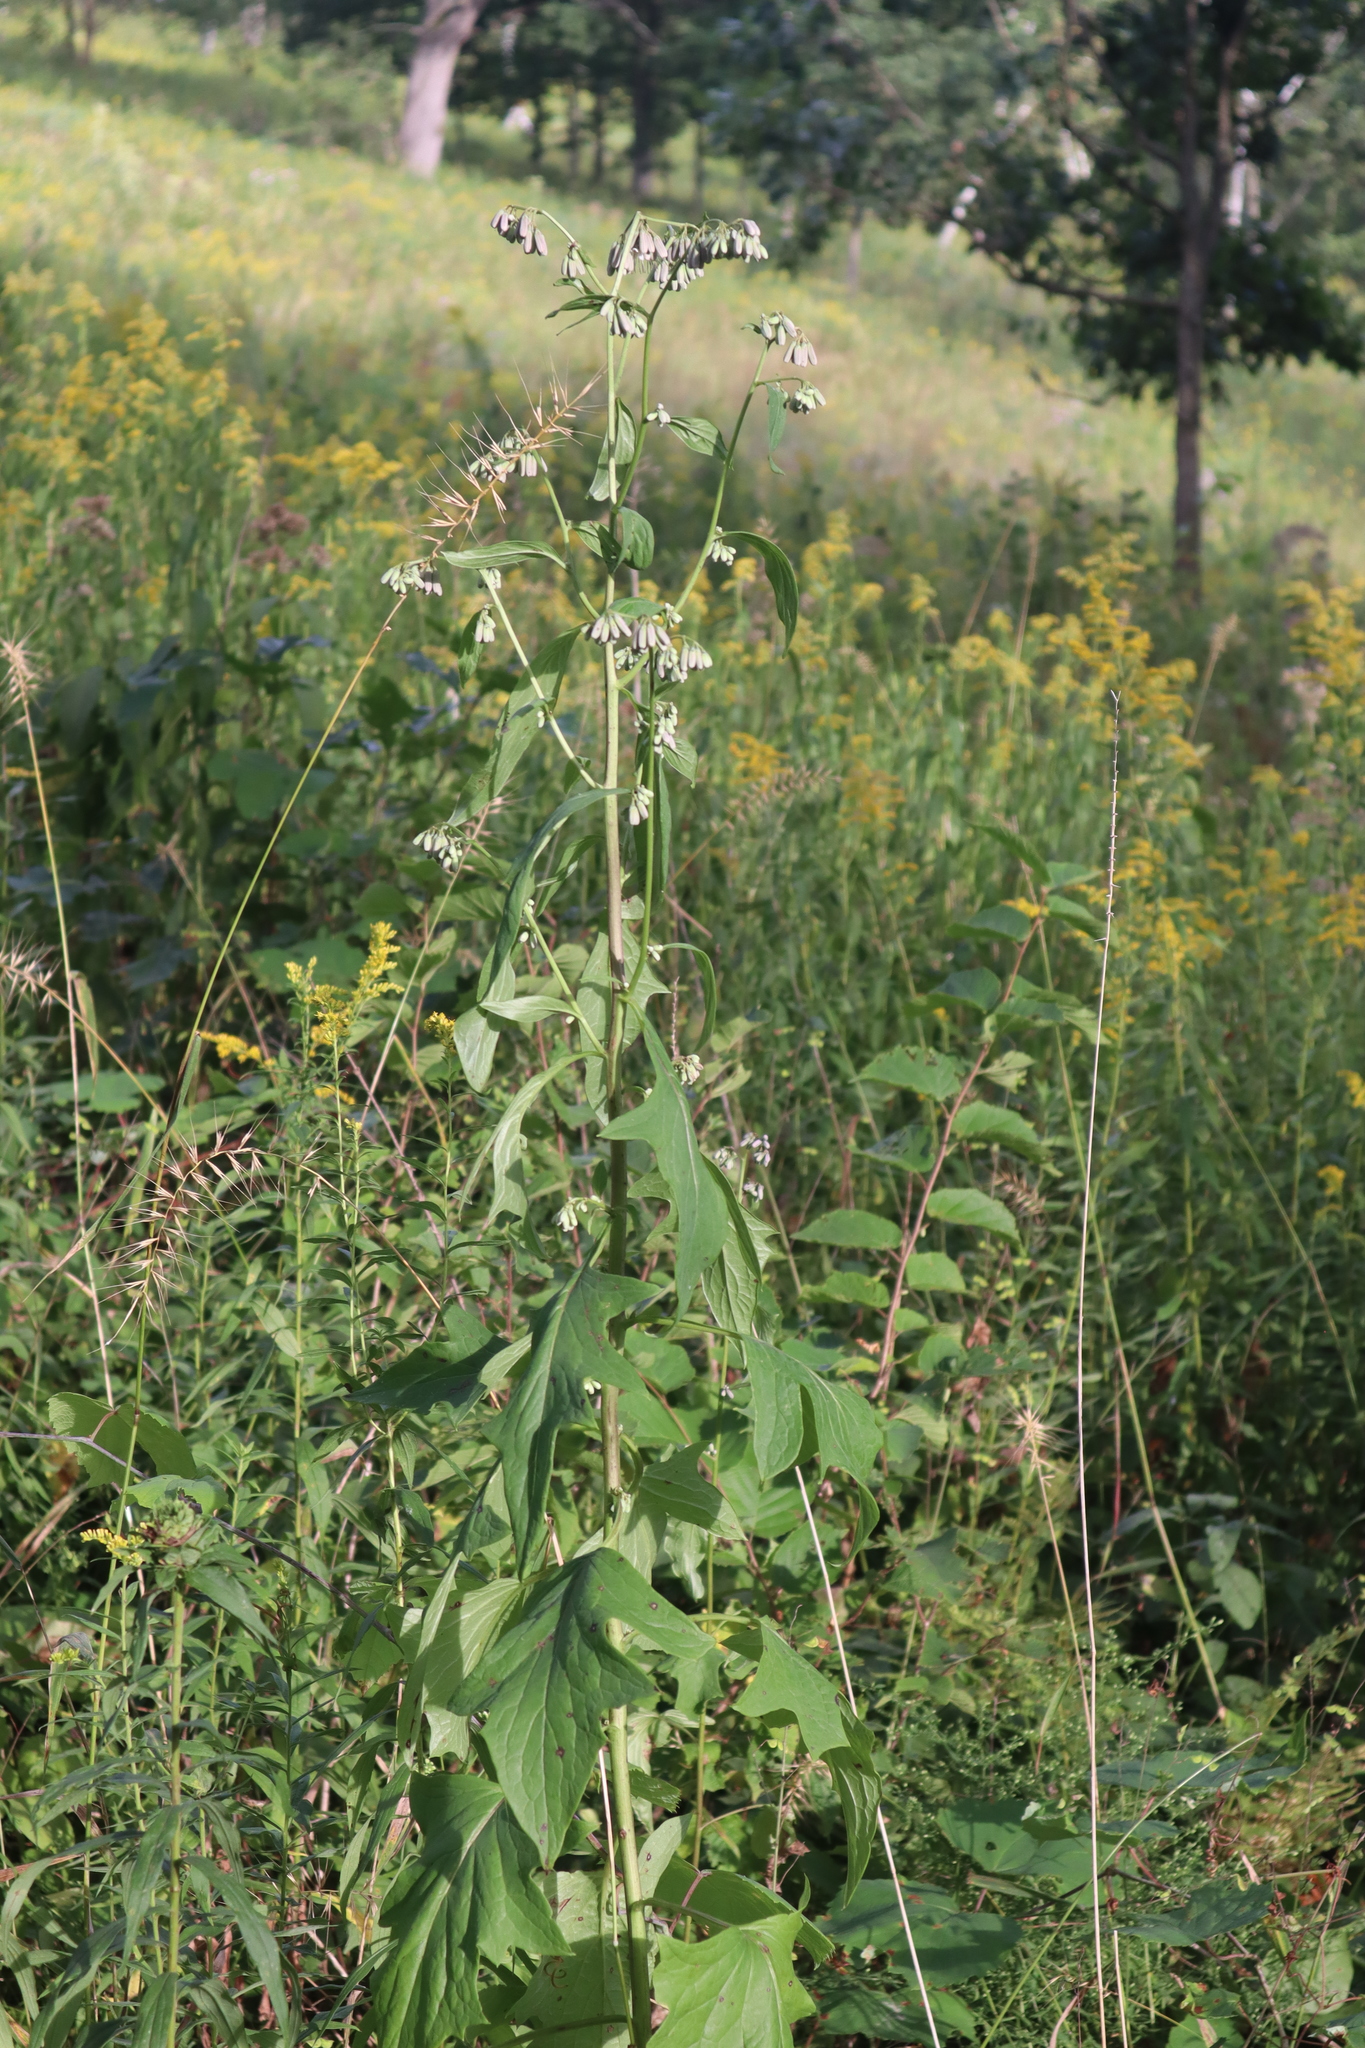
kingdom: Plantae
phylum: Tracheophyta
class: Magnoliopsida
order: Asterales
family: Asteraceae
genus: Nabalus
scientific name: Nabalus albus
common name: White rattlesnakeroot
